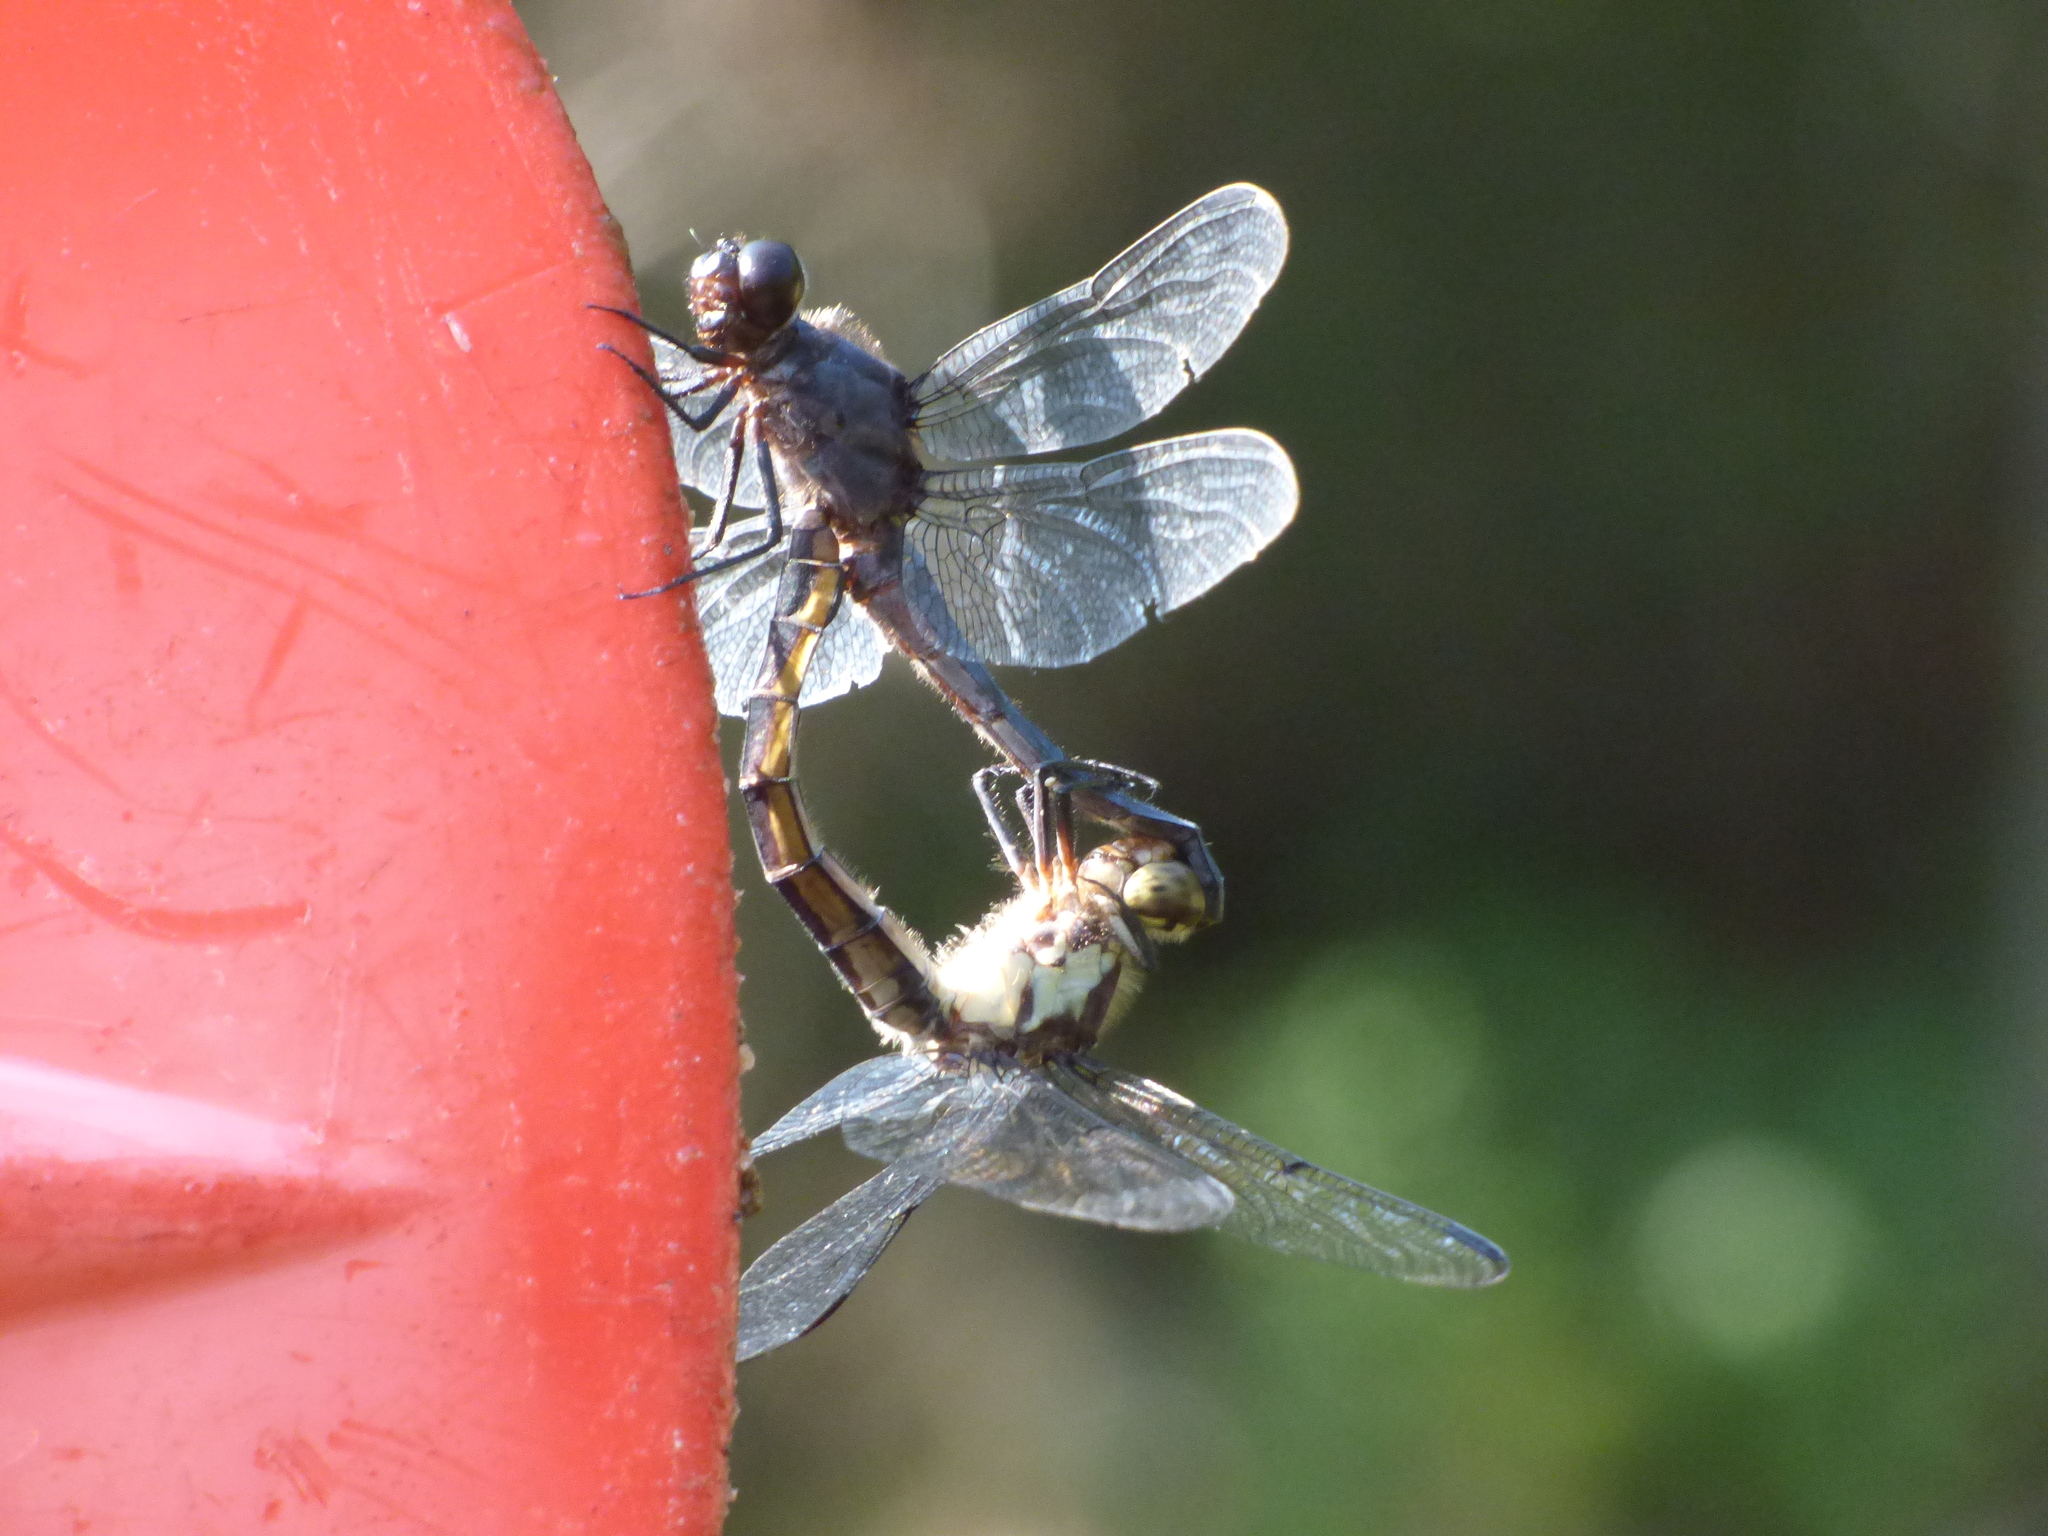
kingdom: Animalia
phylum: Arthropoda
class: Insecta
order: Odonata
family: Libellulidae
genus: Libellula
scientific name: Libellula incesta
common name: Slaty skimmer
